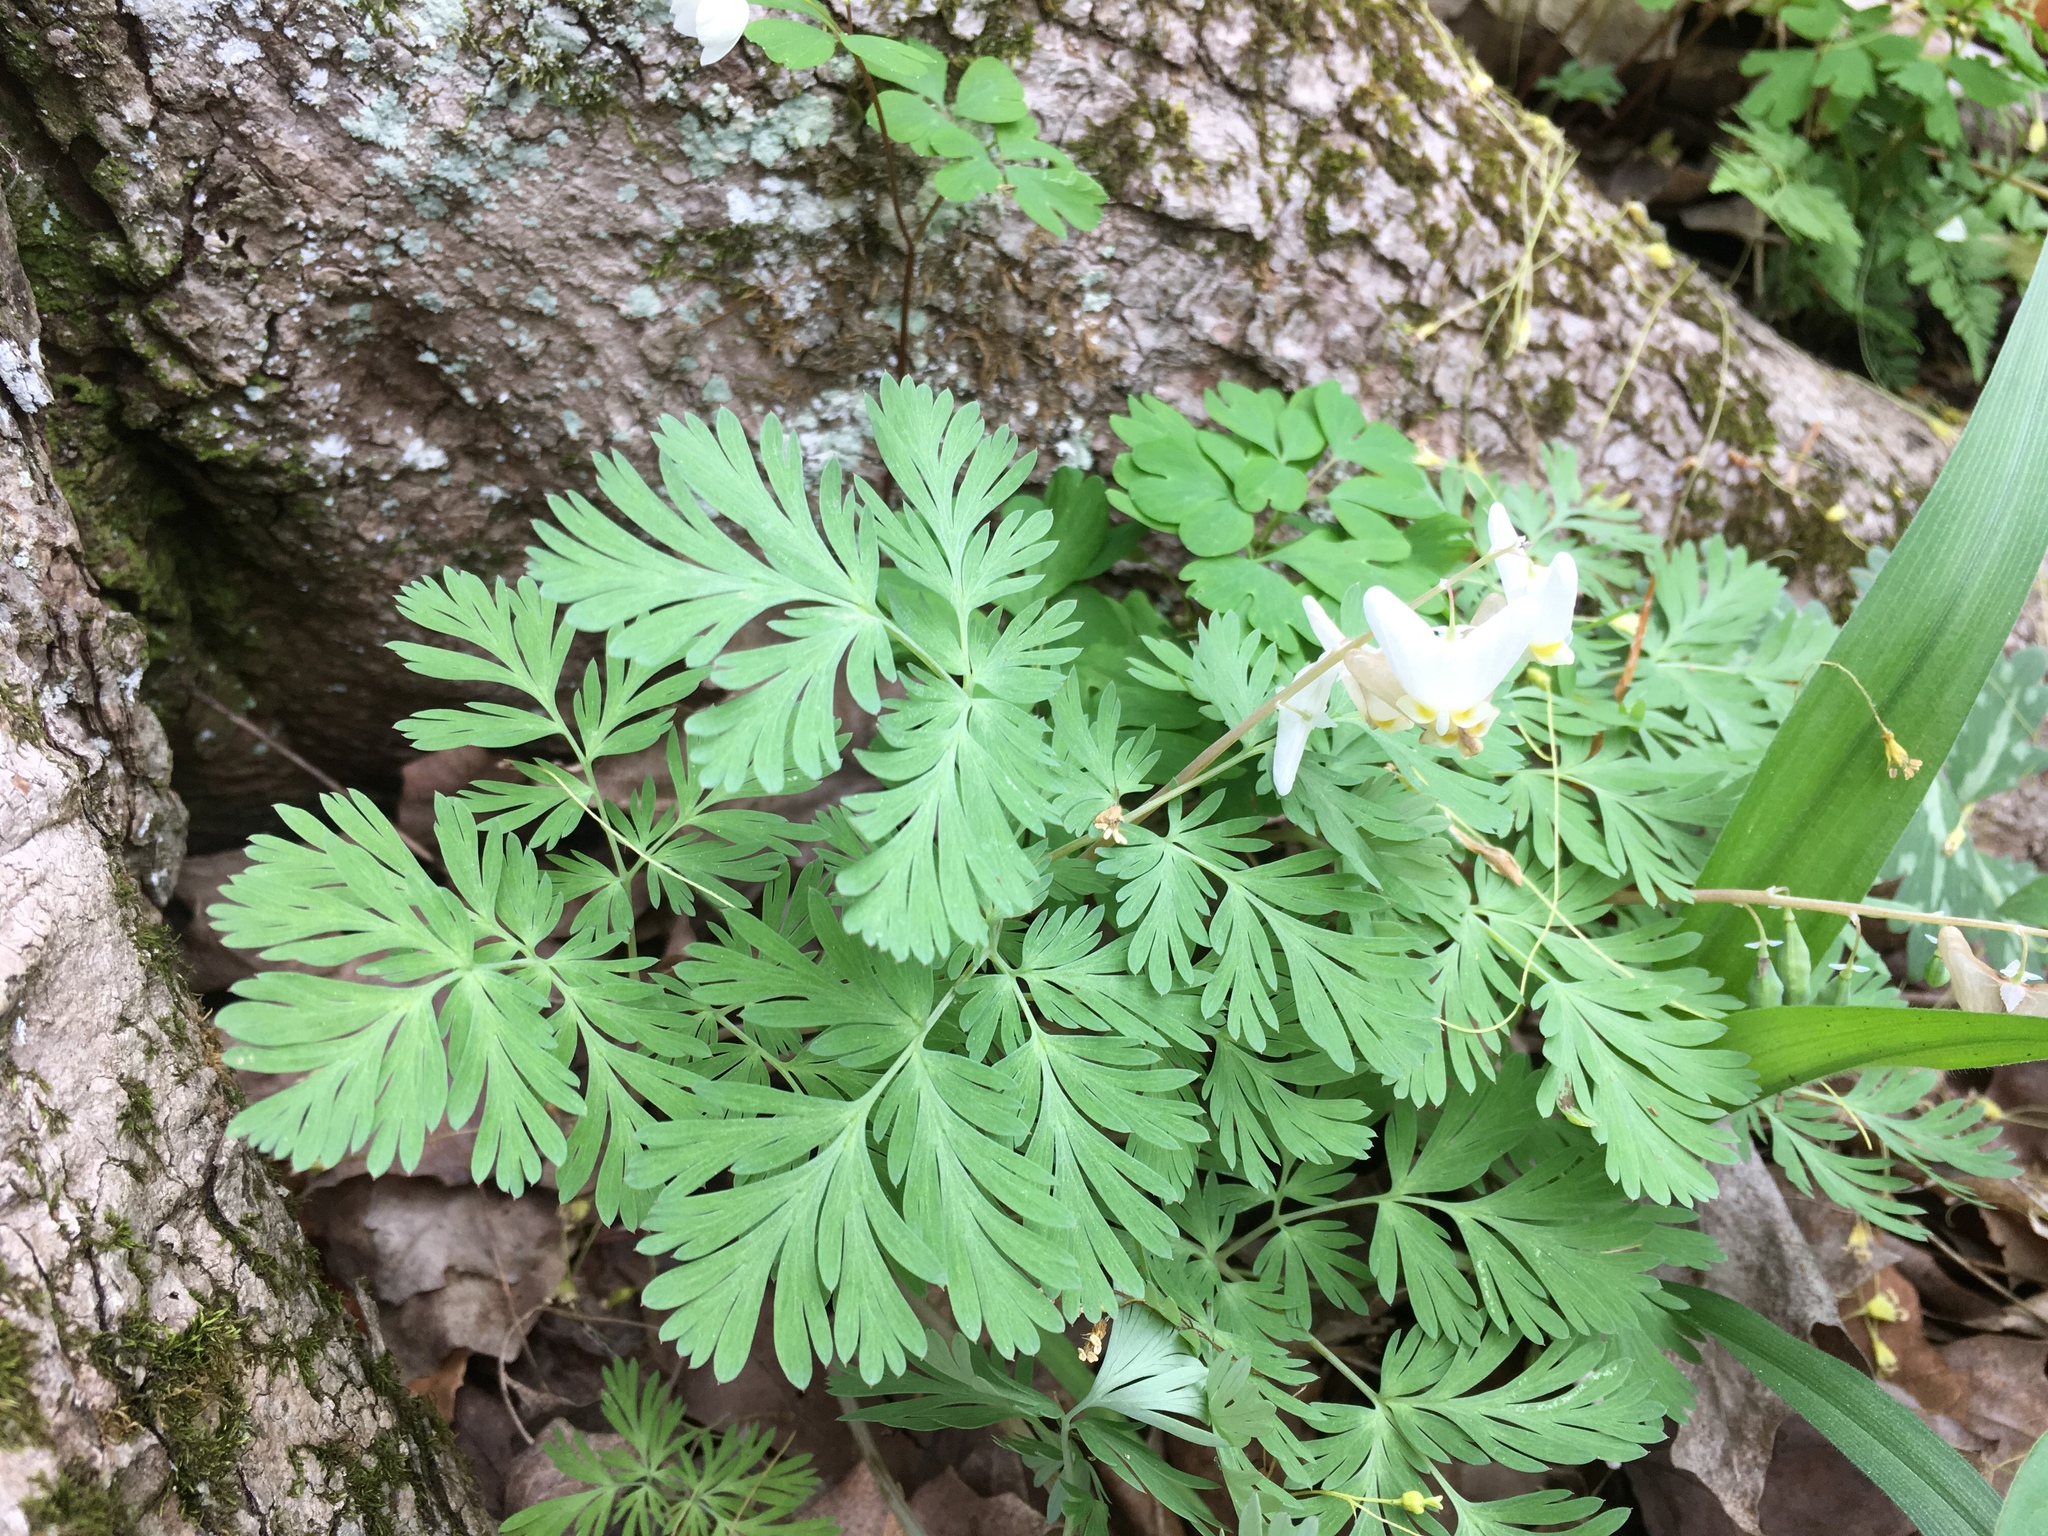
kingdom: Plantae
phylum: Tracheophyta
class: Magnoliopsida
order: Ranunculales
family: Papaveraceae
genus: Dicentra
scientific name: Dicentra cucullaria
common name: Dutchman's breeches
